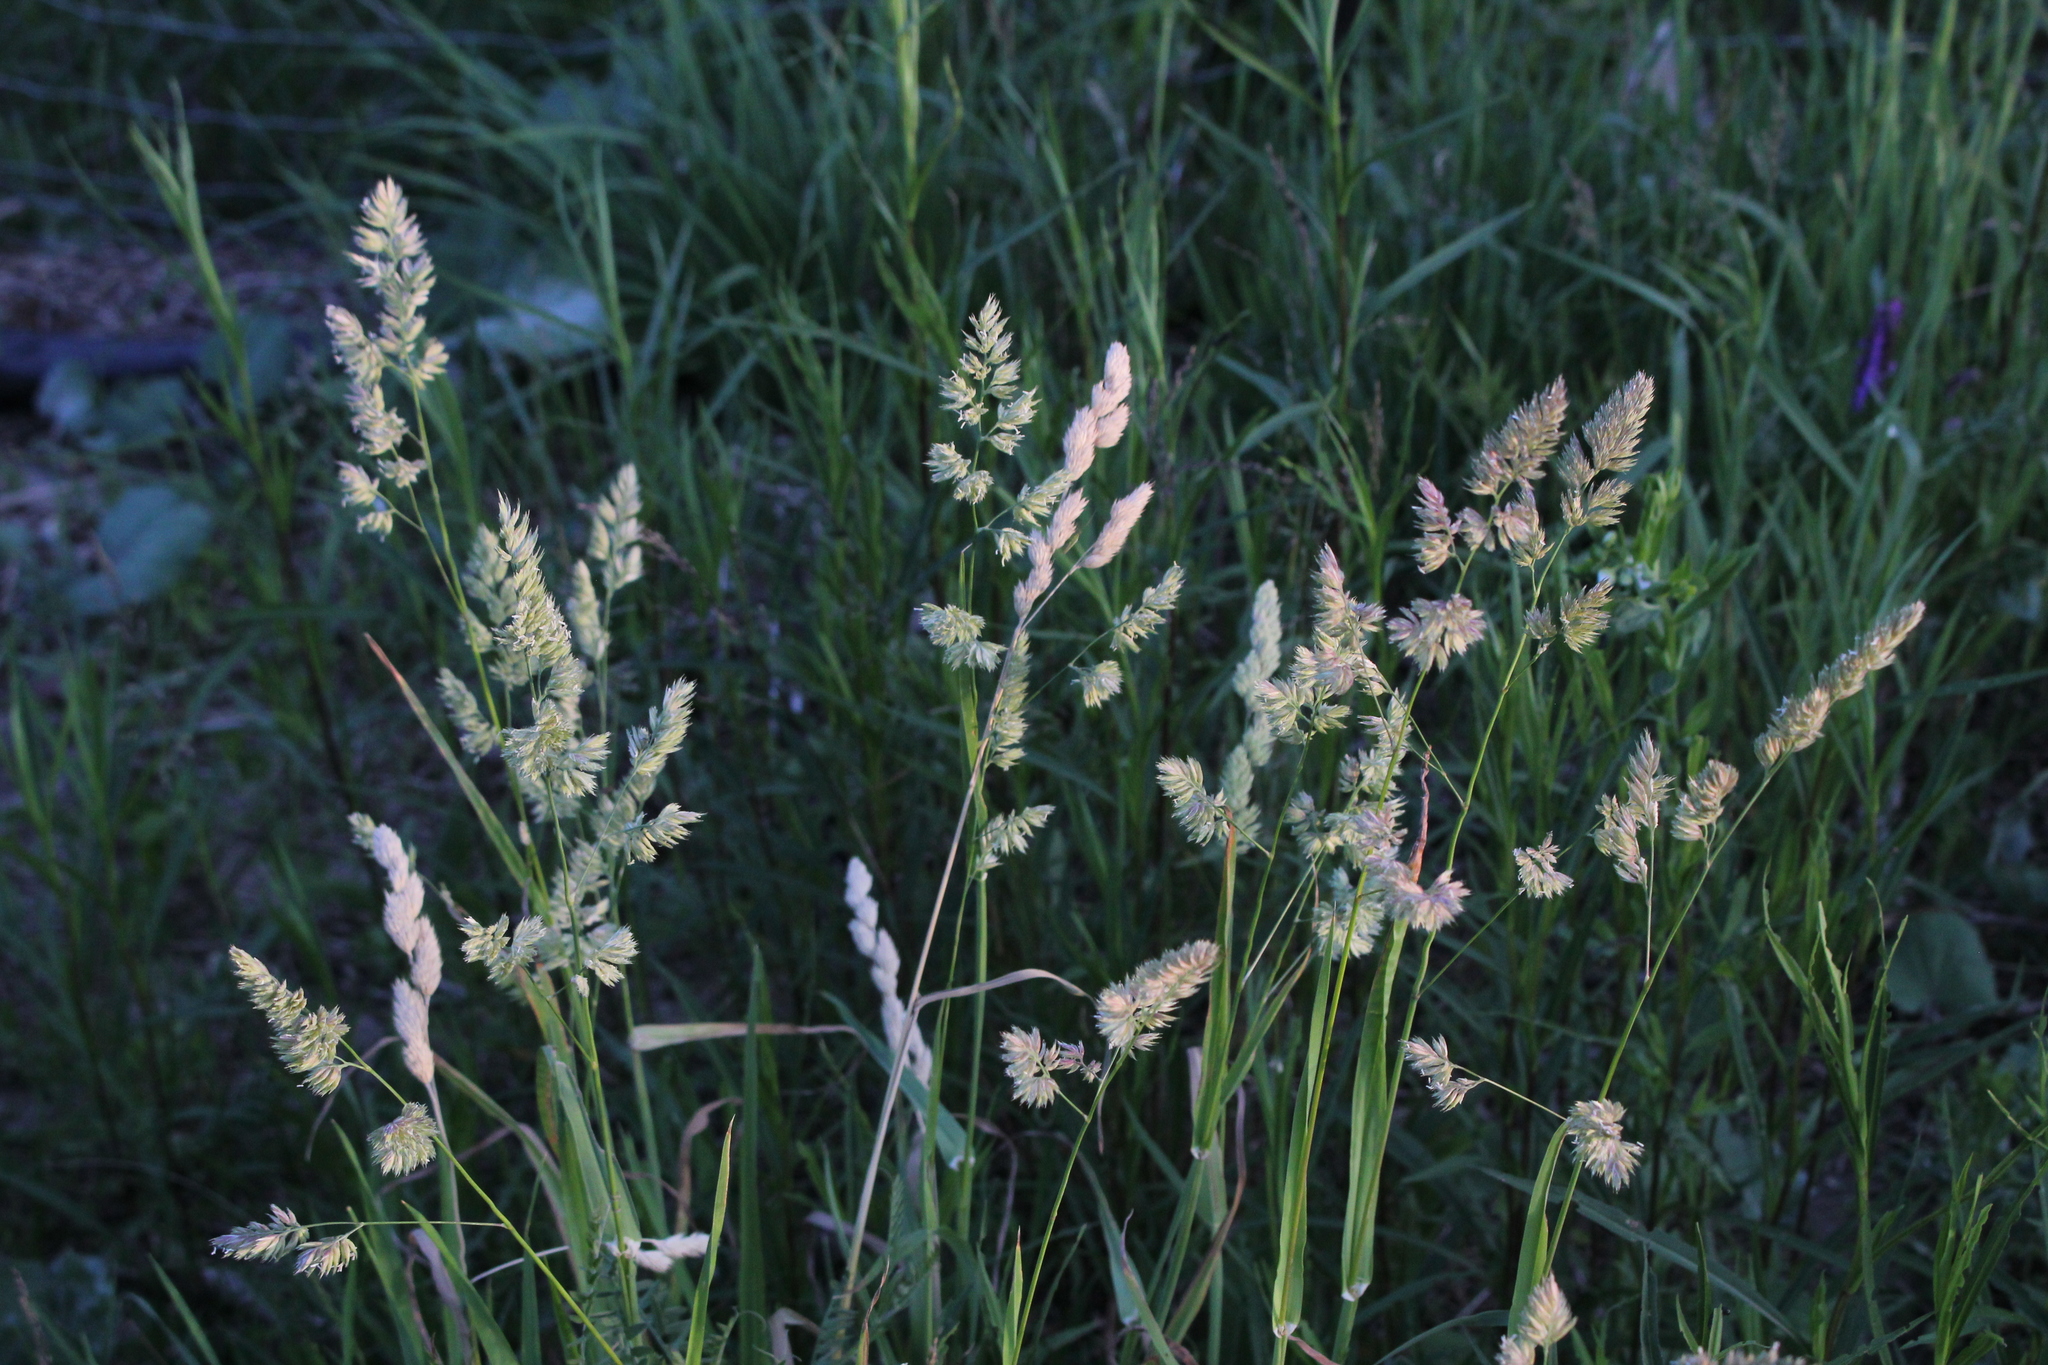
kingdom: Plantae
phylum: Tracheophyta
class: Liliopsida
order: Poales
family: Poaceae
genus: Dactylis
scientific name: Dactylis glomerata
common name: Orchardgrass
